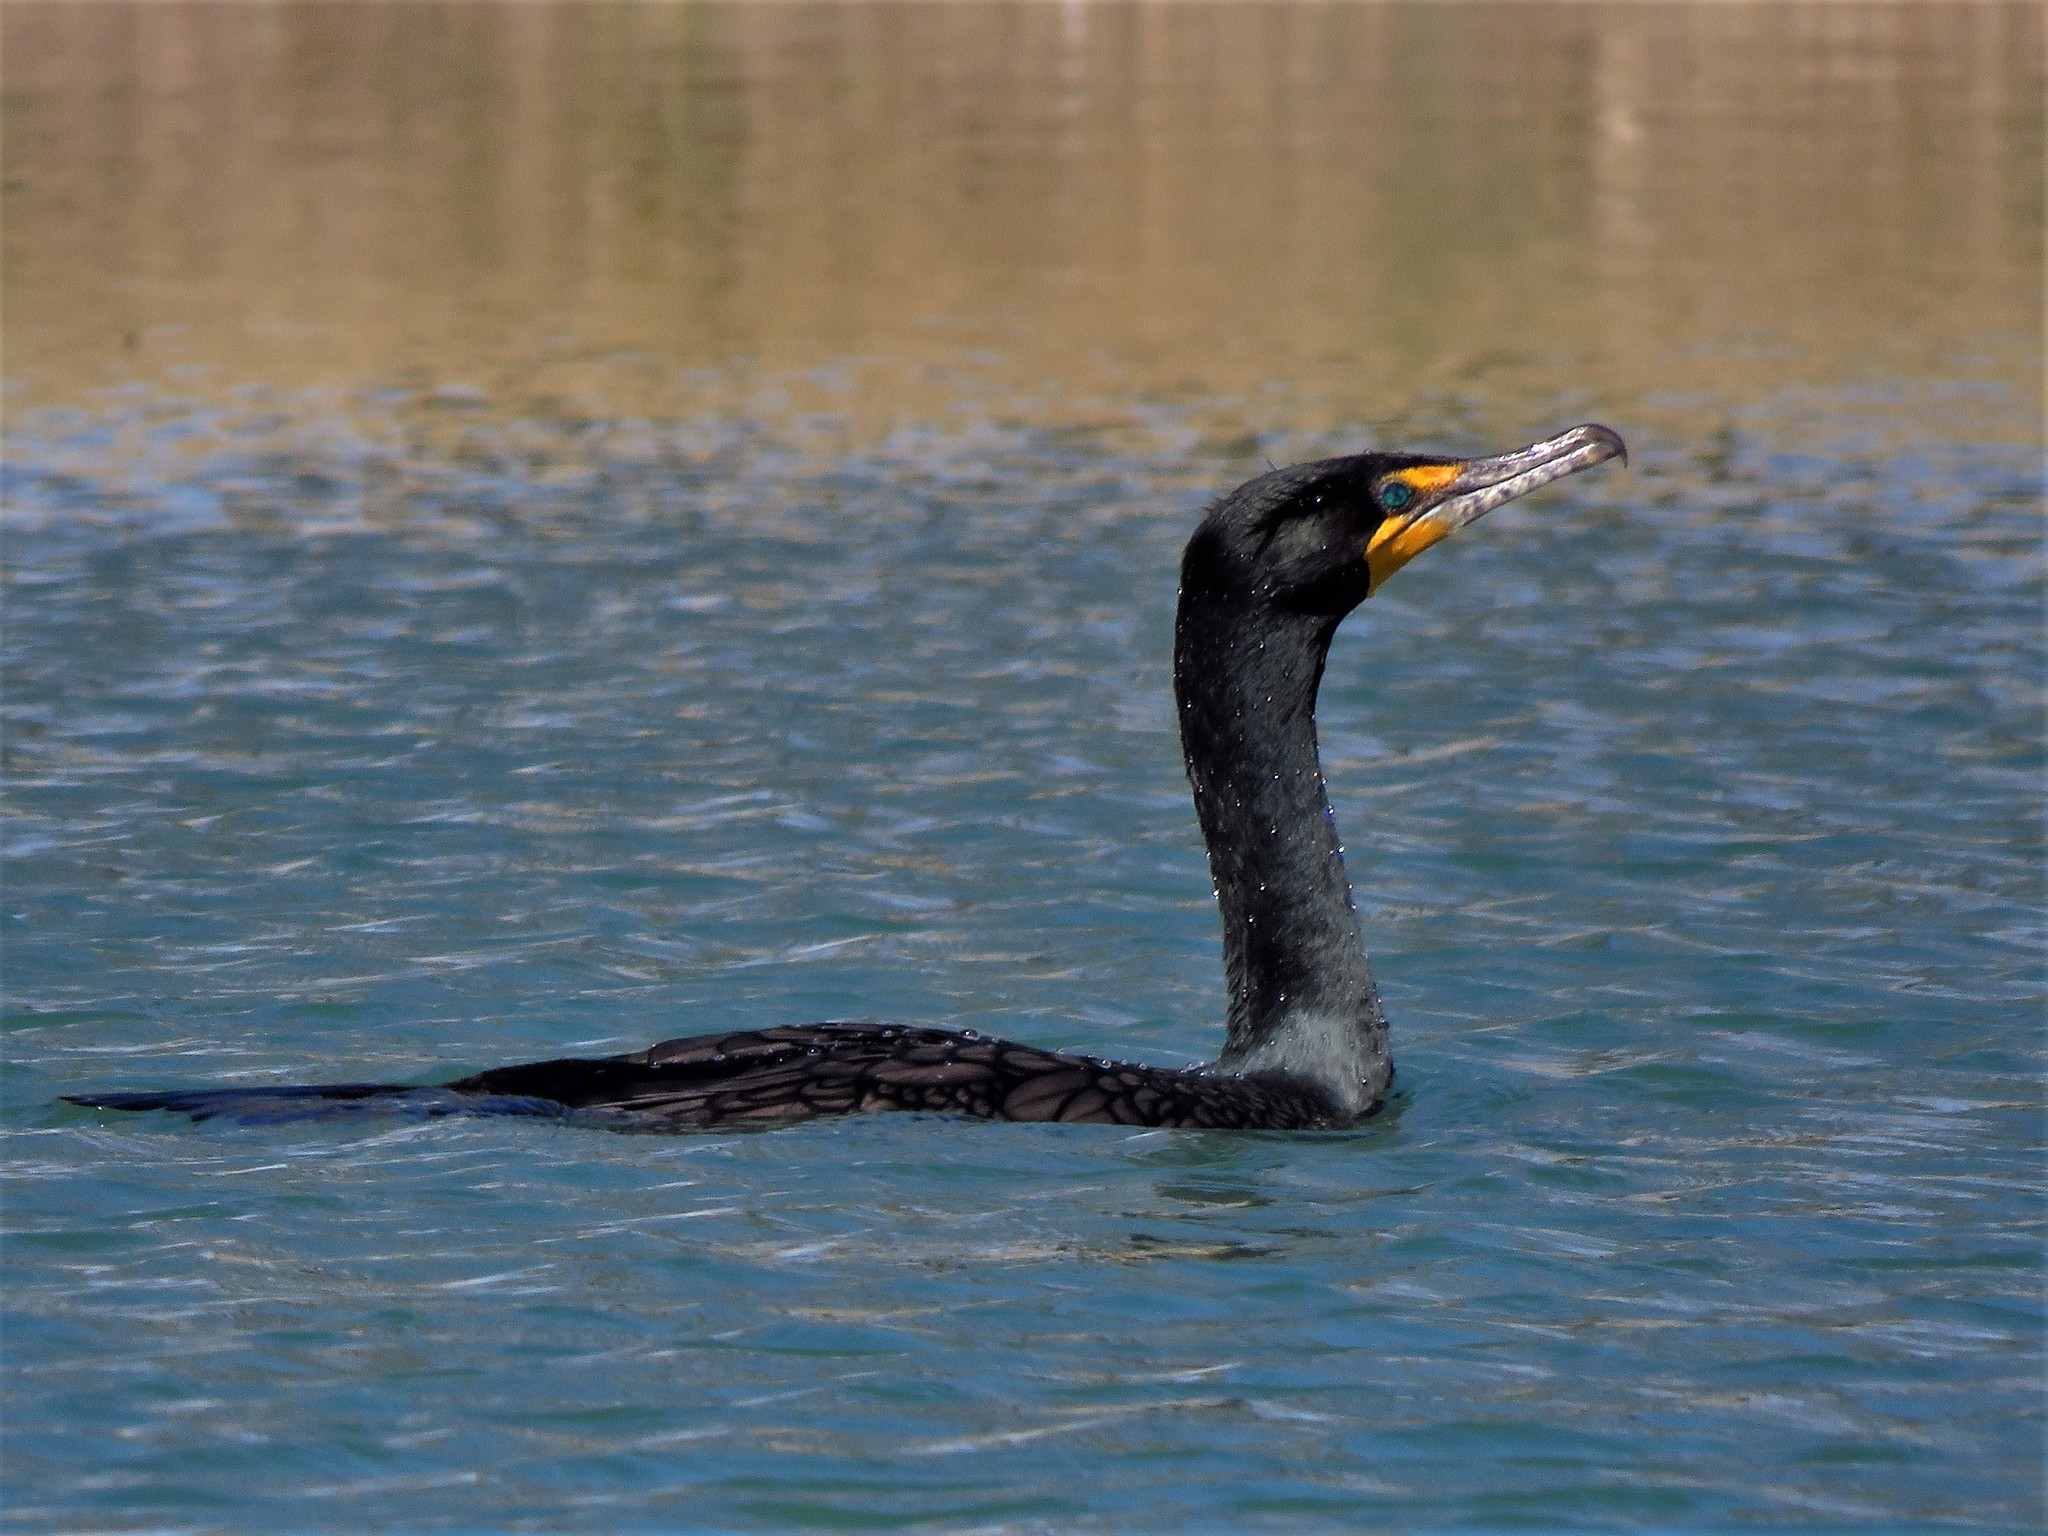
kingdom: Animalia
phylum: Chordata
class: Aves
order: Suliformes
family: Phalacrocoracidae
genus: Phalacrocorax
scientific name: Phalacrocorax auritus
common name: Double-crested cormorant
